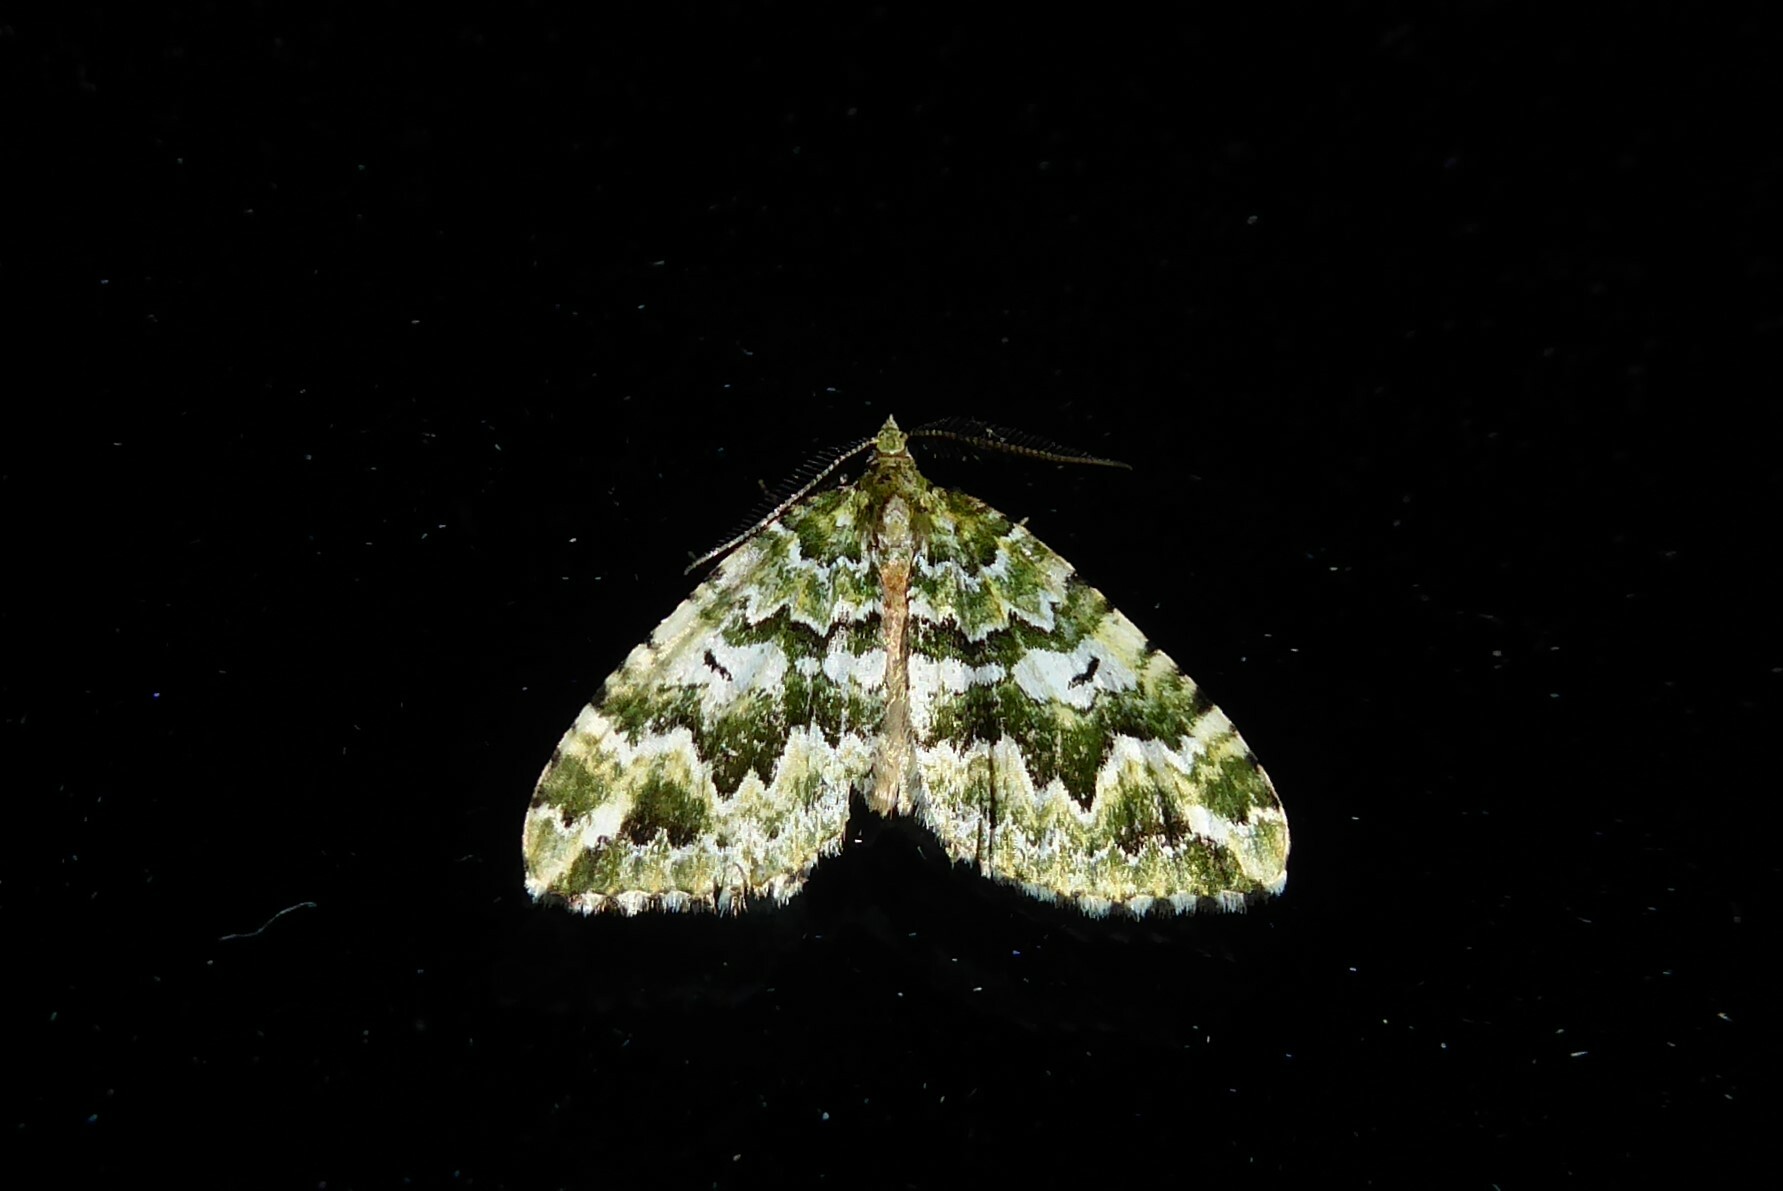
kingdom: Animalia
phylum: Arthropoda
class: Insecta
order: Lepidoptera
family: Geometridae
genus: Asaphodes
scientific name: Asaphodes beata
